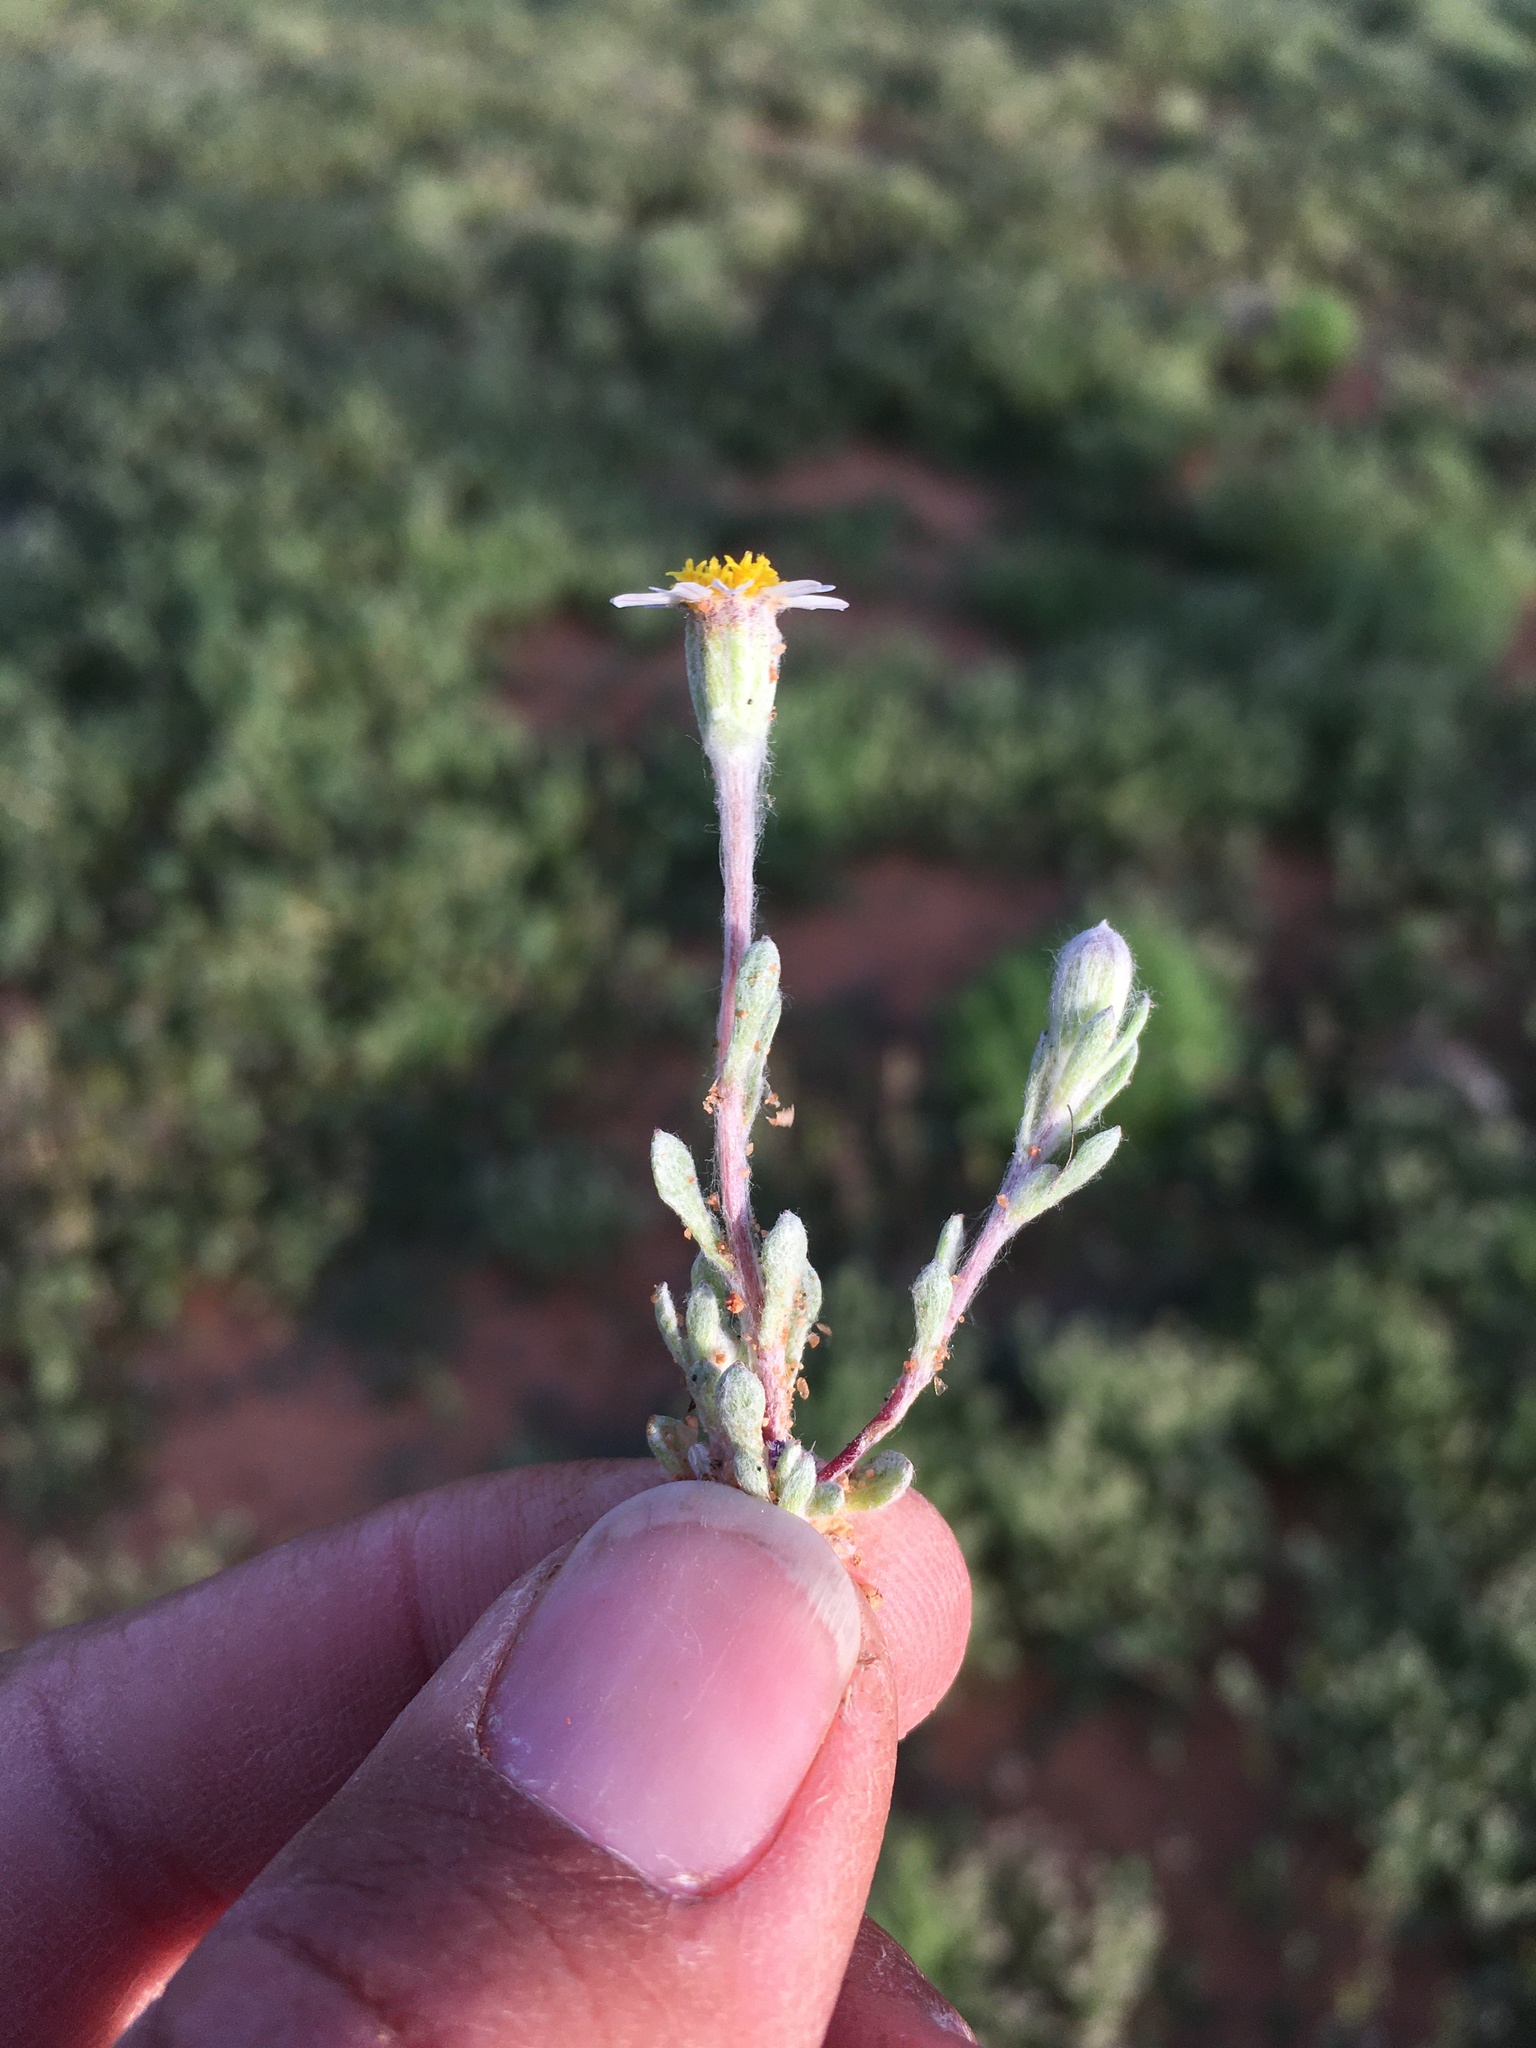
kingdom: Plantae
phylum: Tracheophyta
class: Magnoliopsida
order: Asterales
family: Asteraceae
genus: Eriophyllum
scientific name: Eriophyllum lanosum
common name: White easter-bonnets
